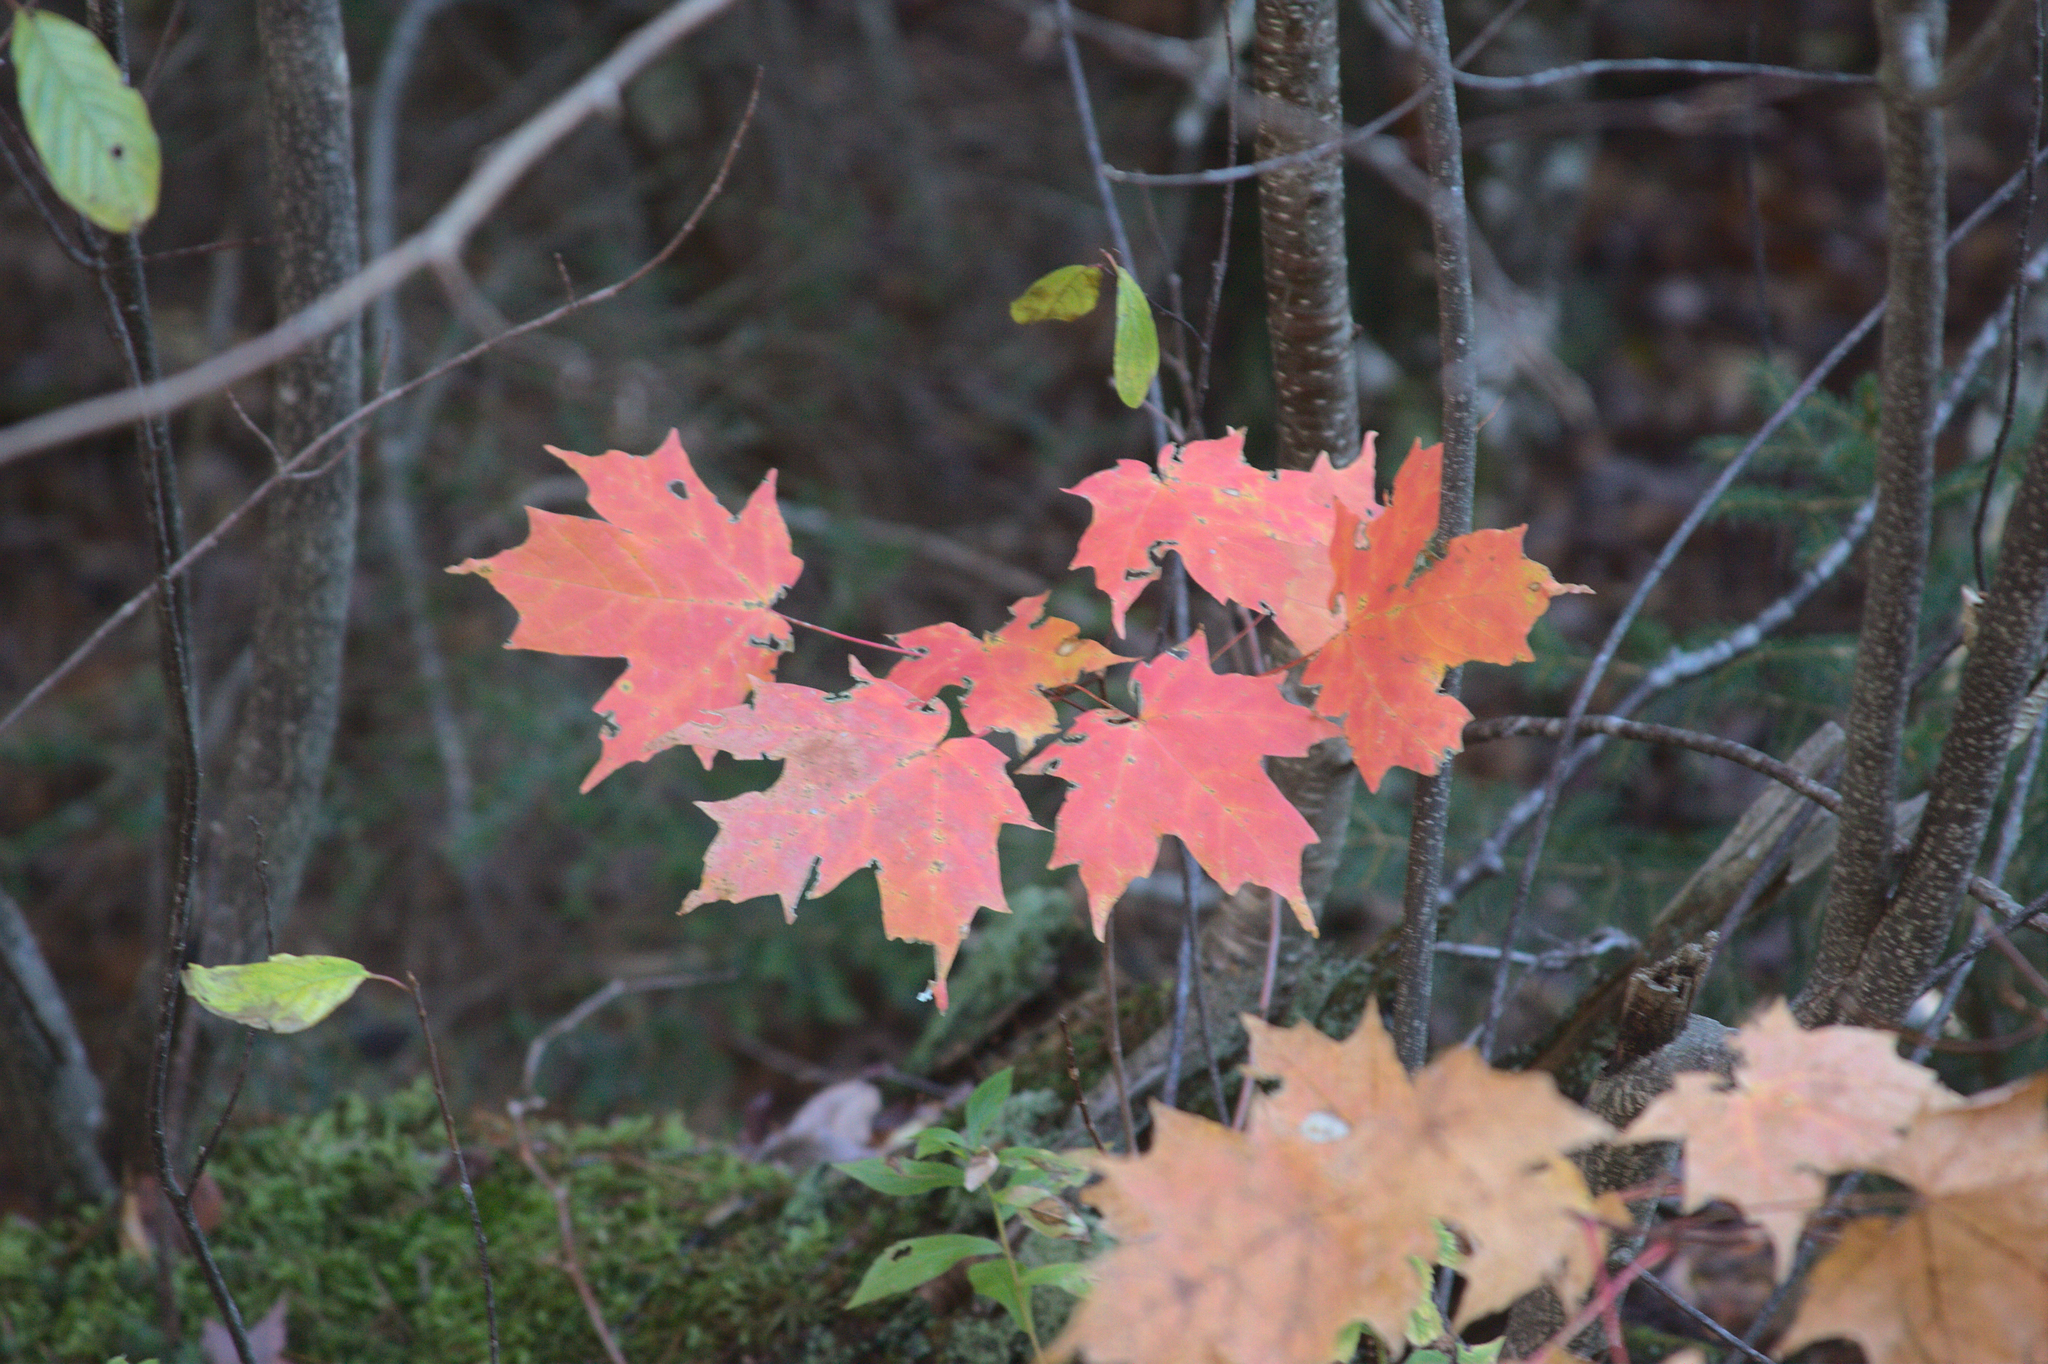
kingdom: Plantae
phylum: Tracheophyta
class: Magnoliopsida
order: Sapindales
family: Sapindaceae
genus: Acer
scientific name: Acer saccharum
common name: Sugar maple
